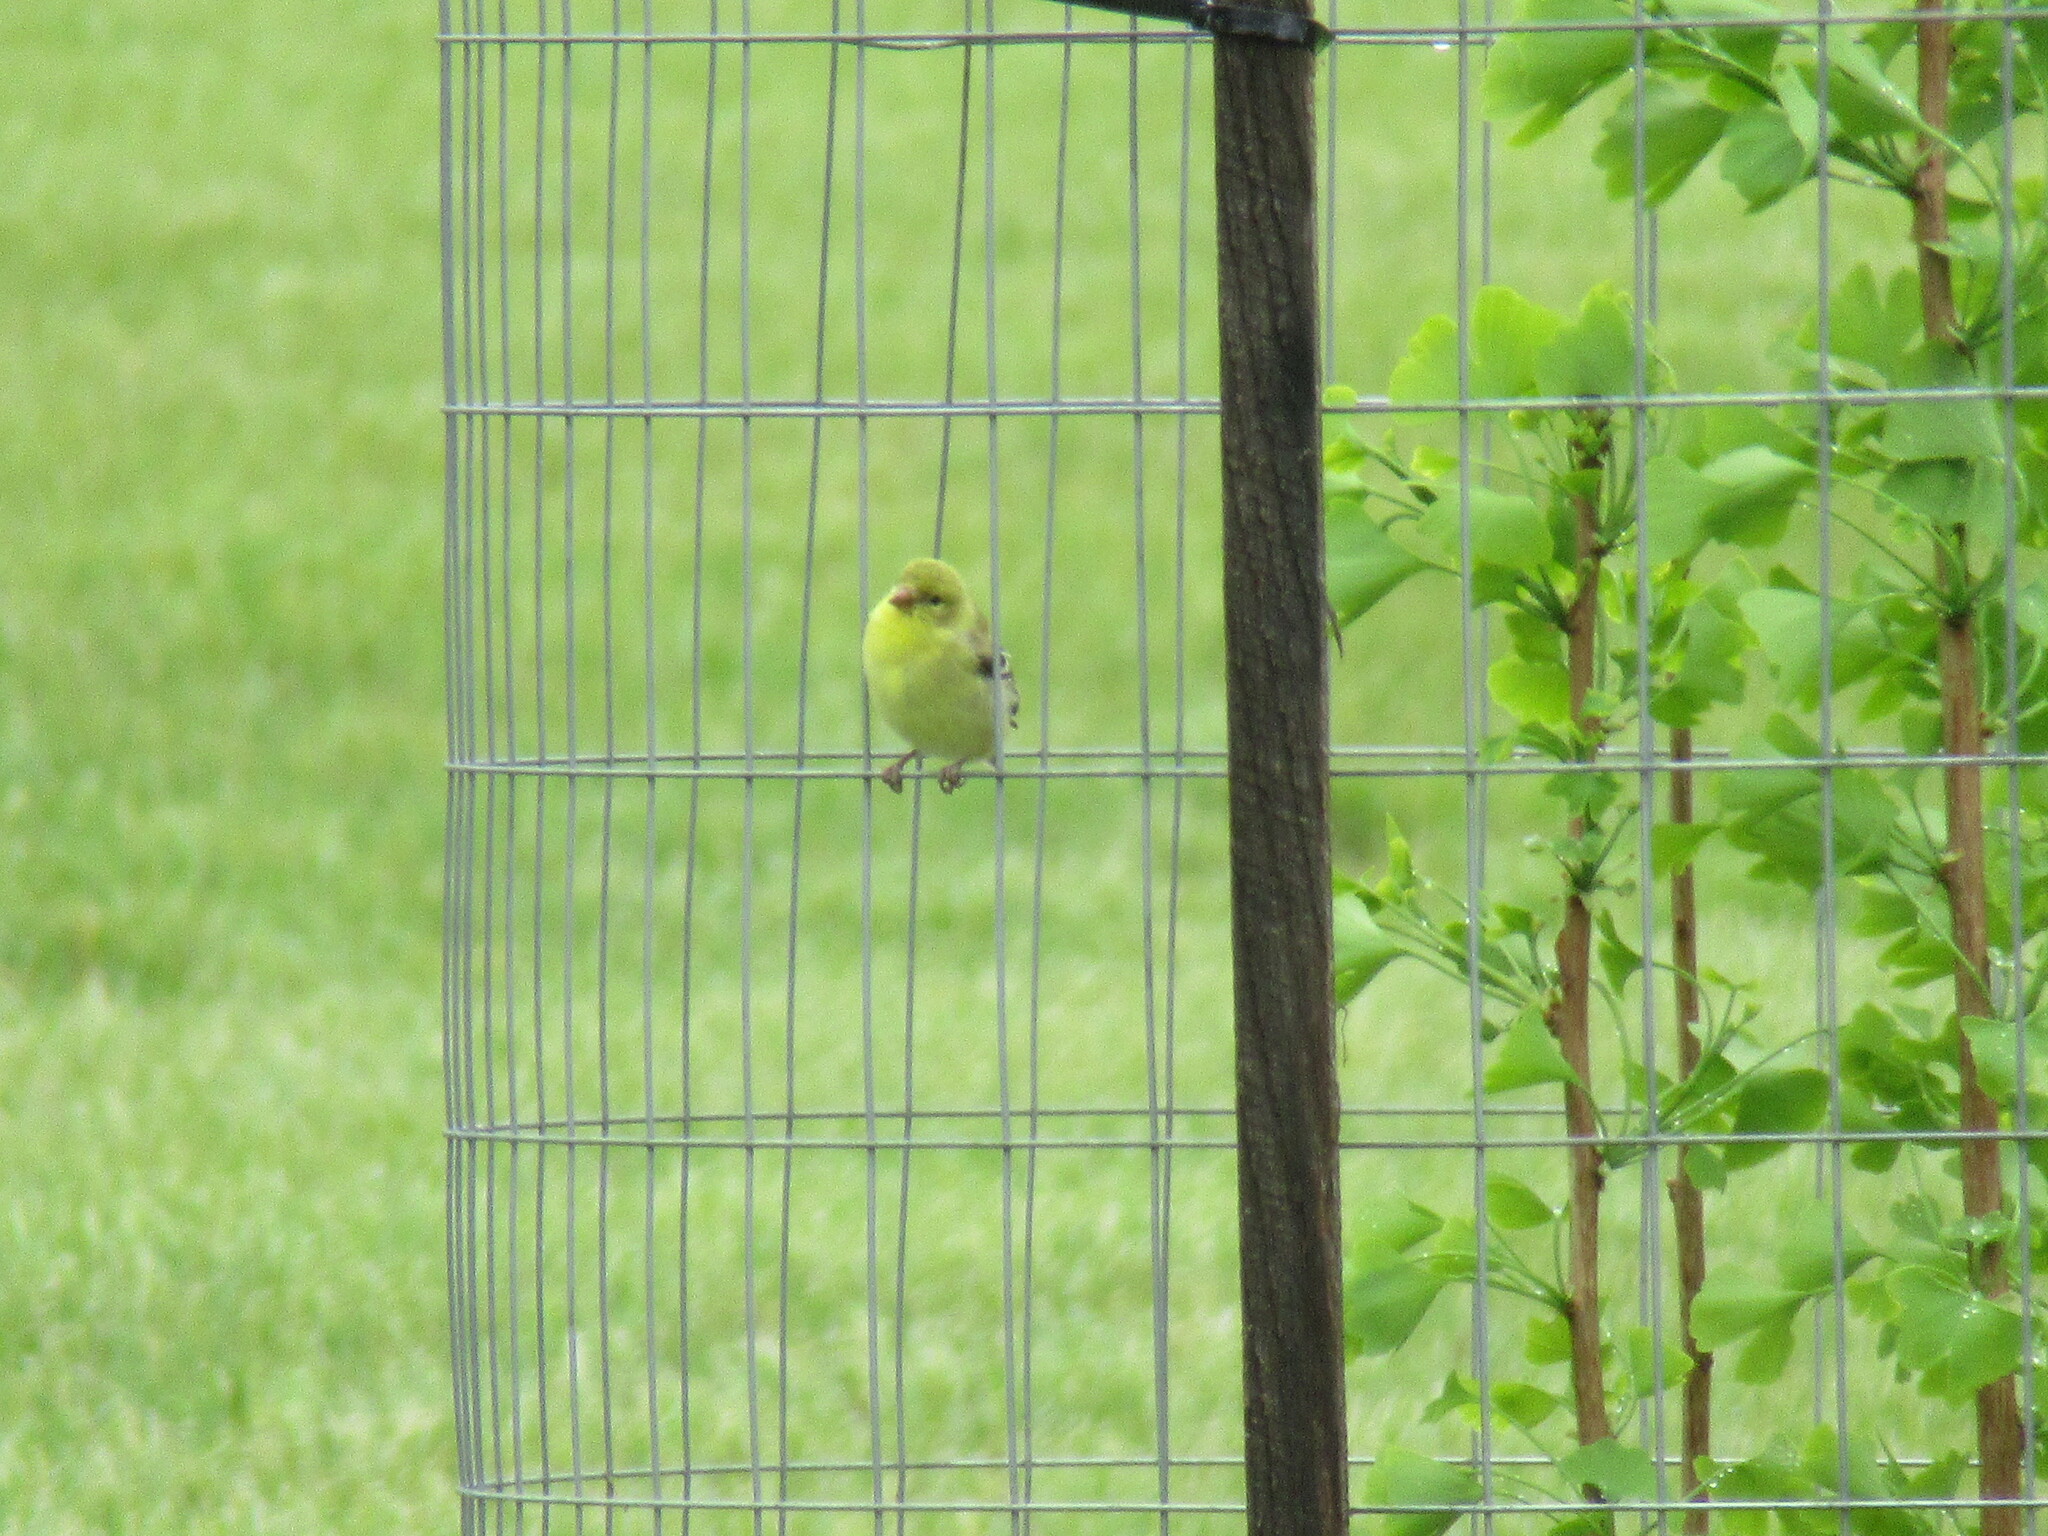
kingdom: Animalia
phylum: Chordata
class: Aves
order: Passeriformes
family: Fringillidae
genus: Spinus
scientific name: Spinus tristis
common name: American goldfinch
